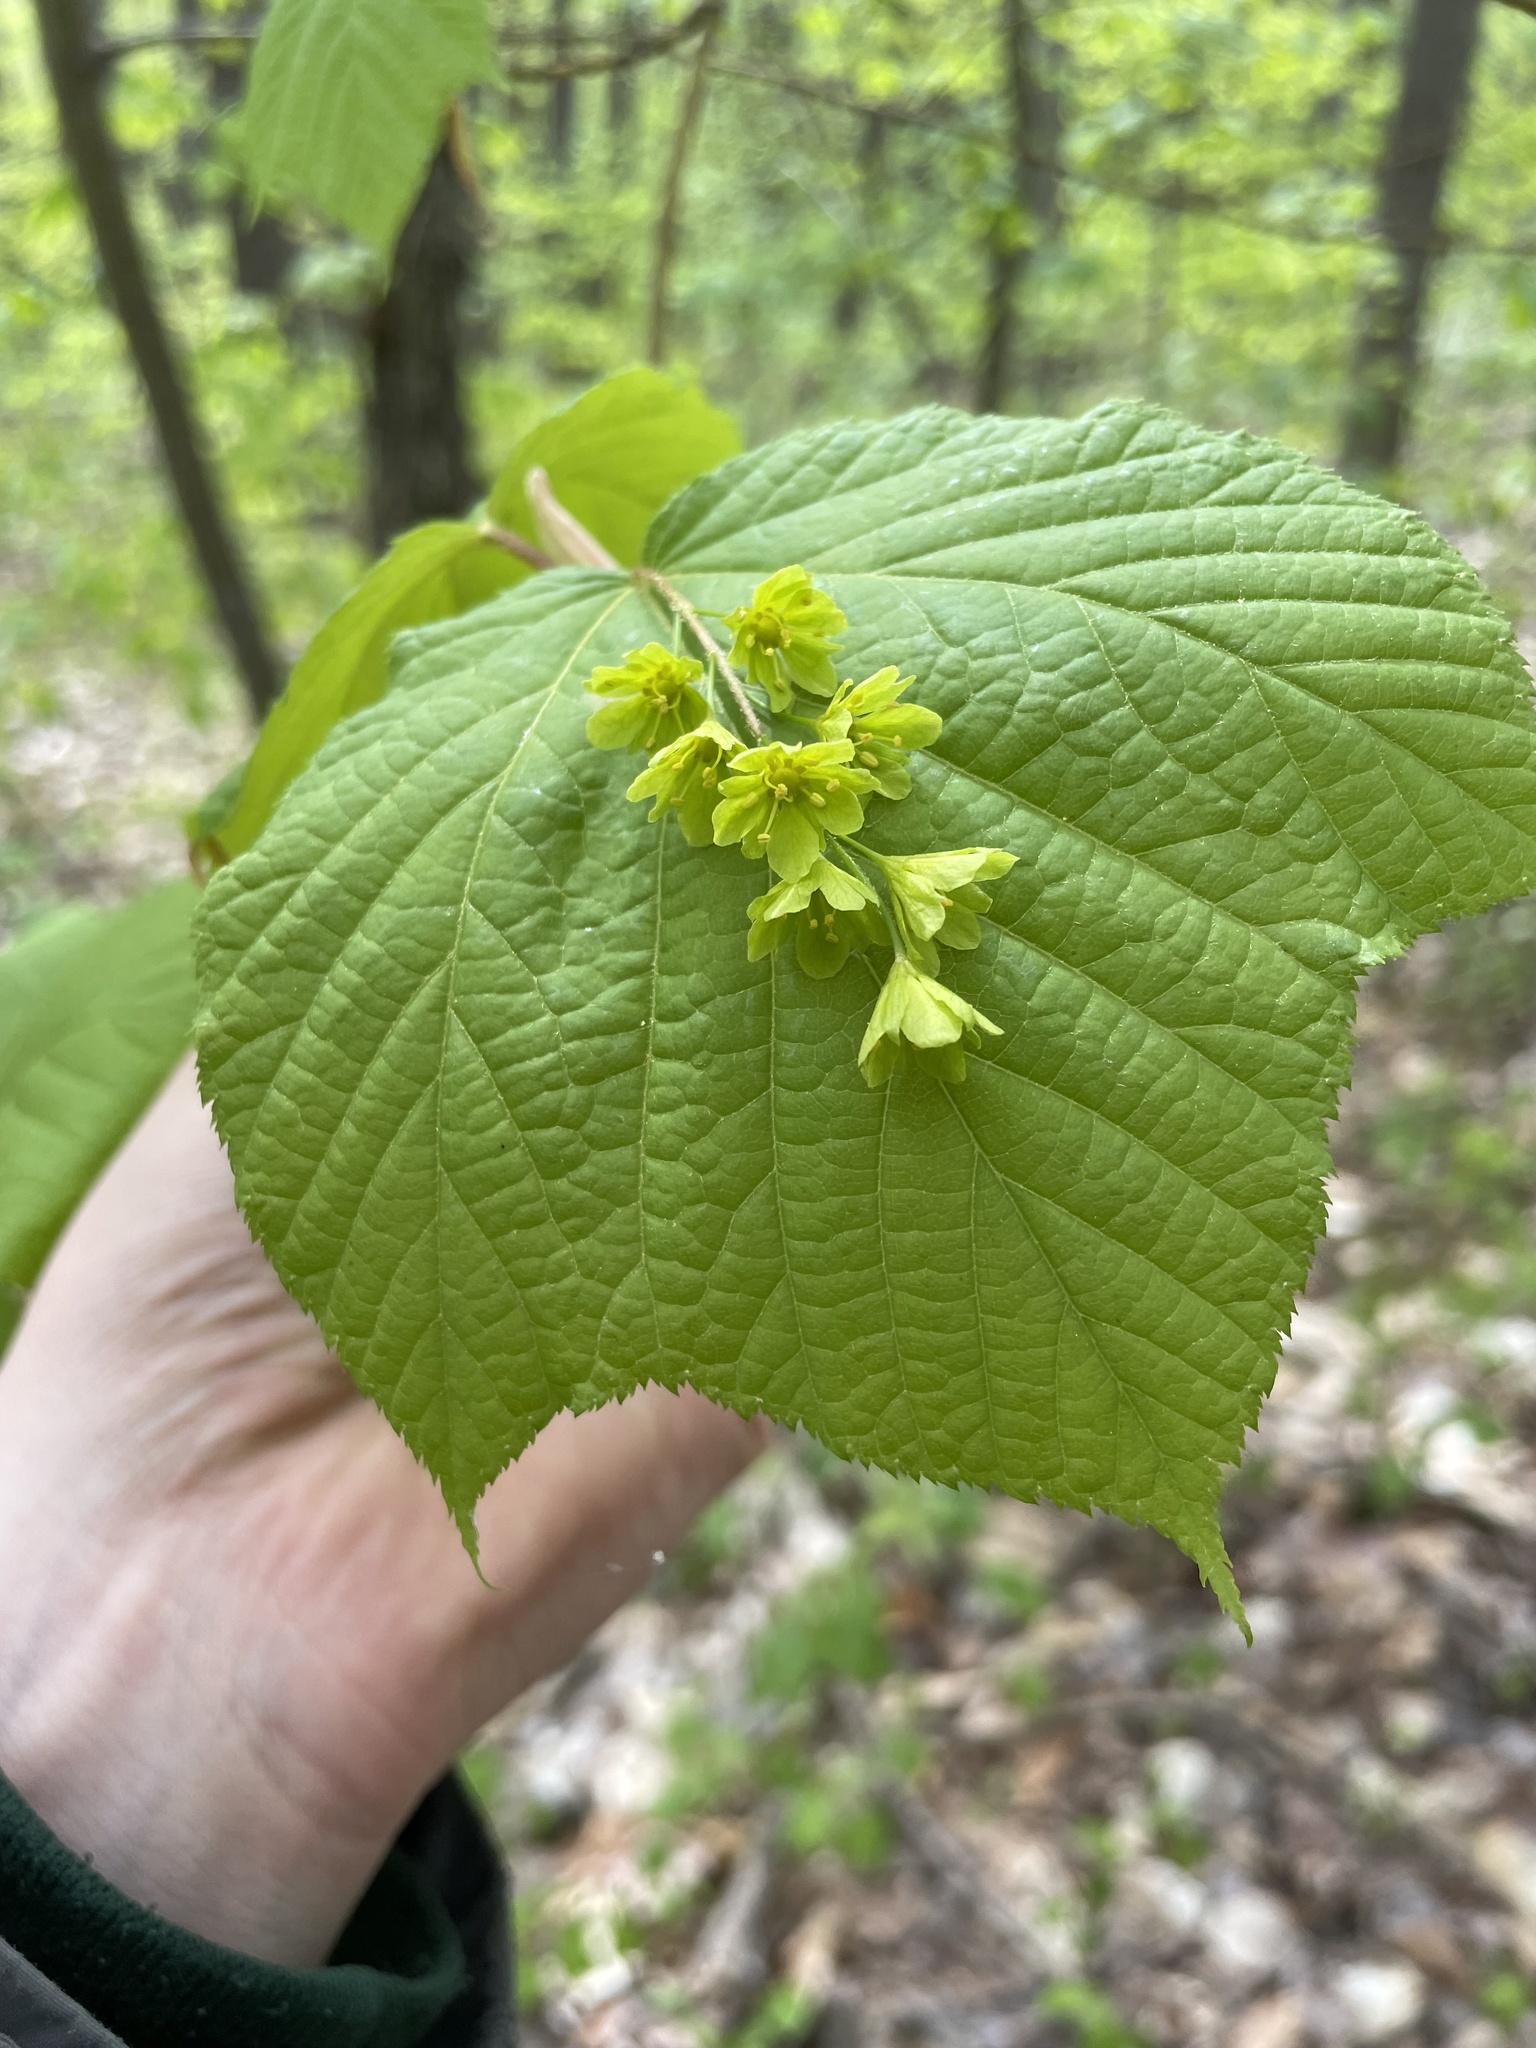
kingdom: Plantae
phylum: Tracheophyta
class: Magnoliopsida
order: Sapindales
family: Sapindaceae
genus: Acer
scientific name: Acer pensylvanicum
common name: Moosewood
